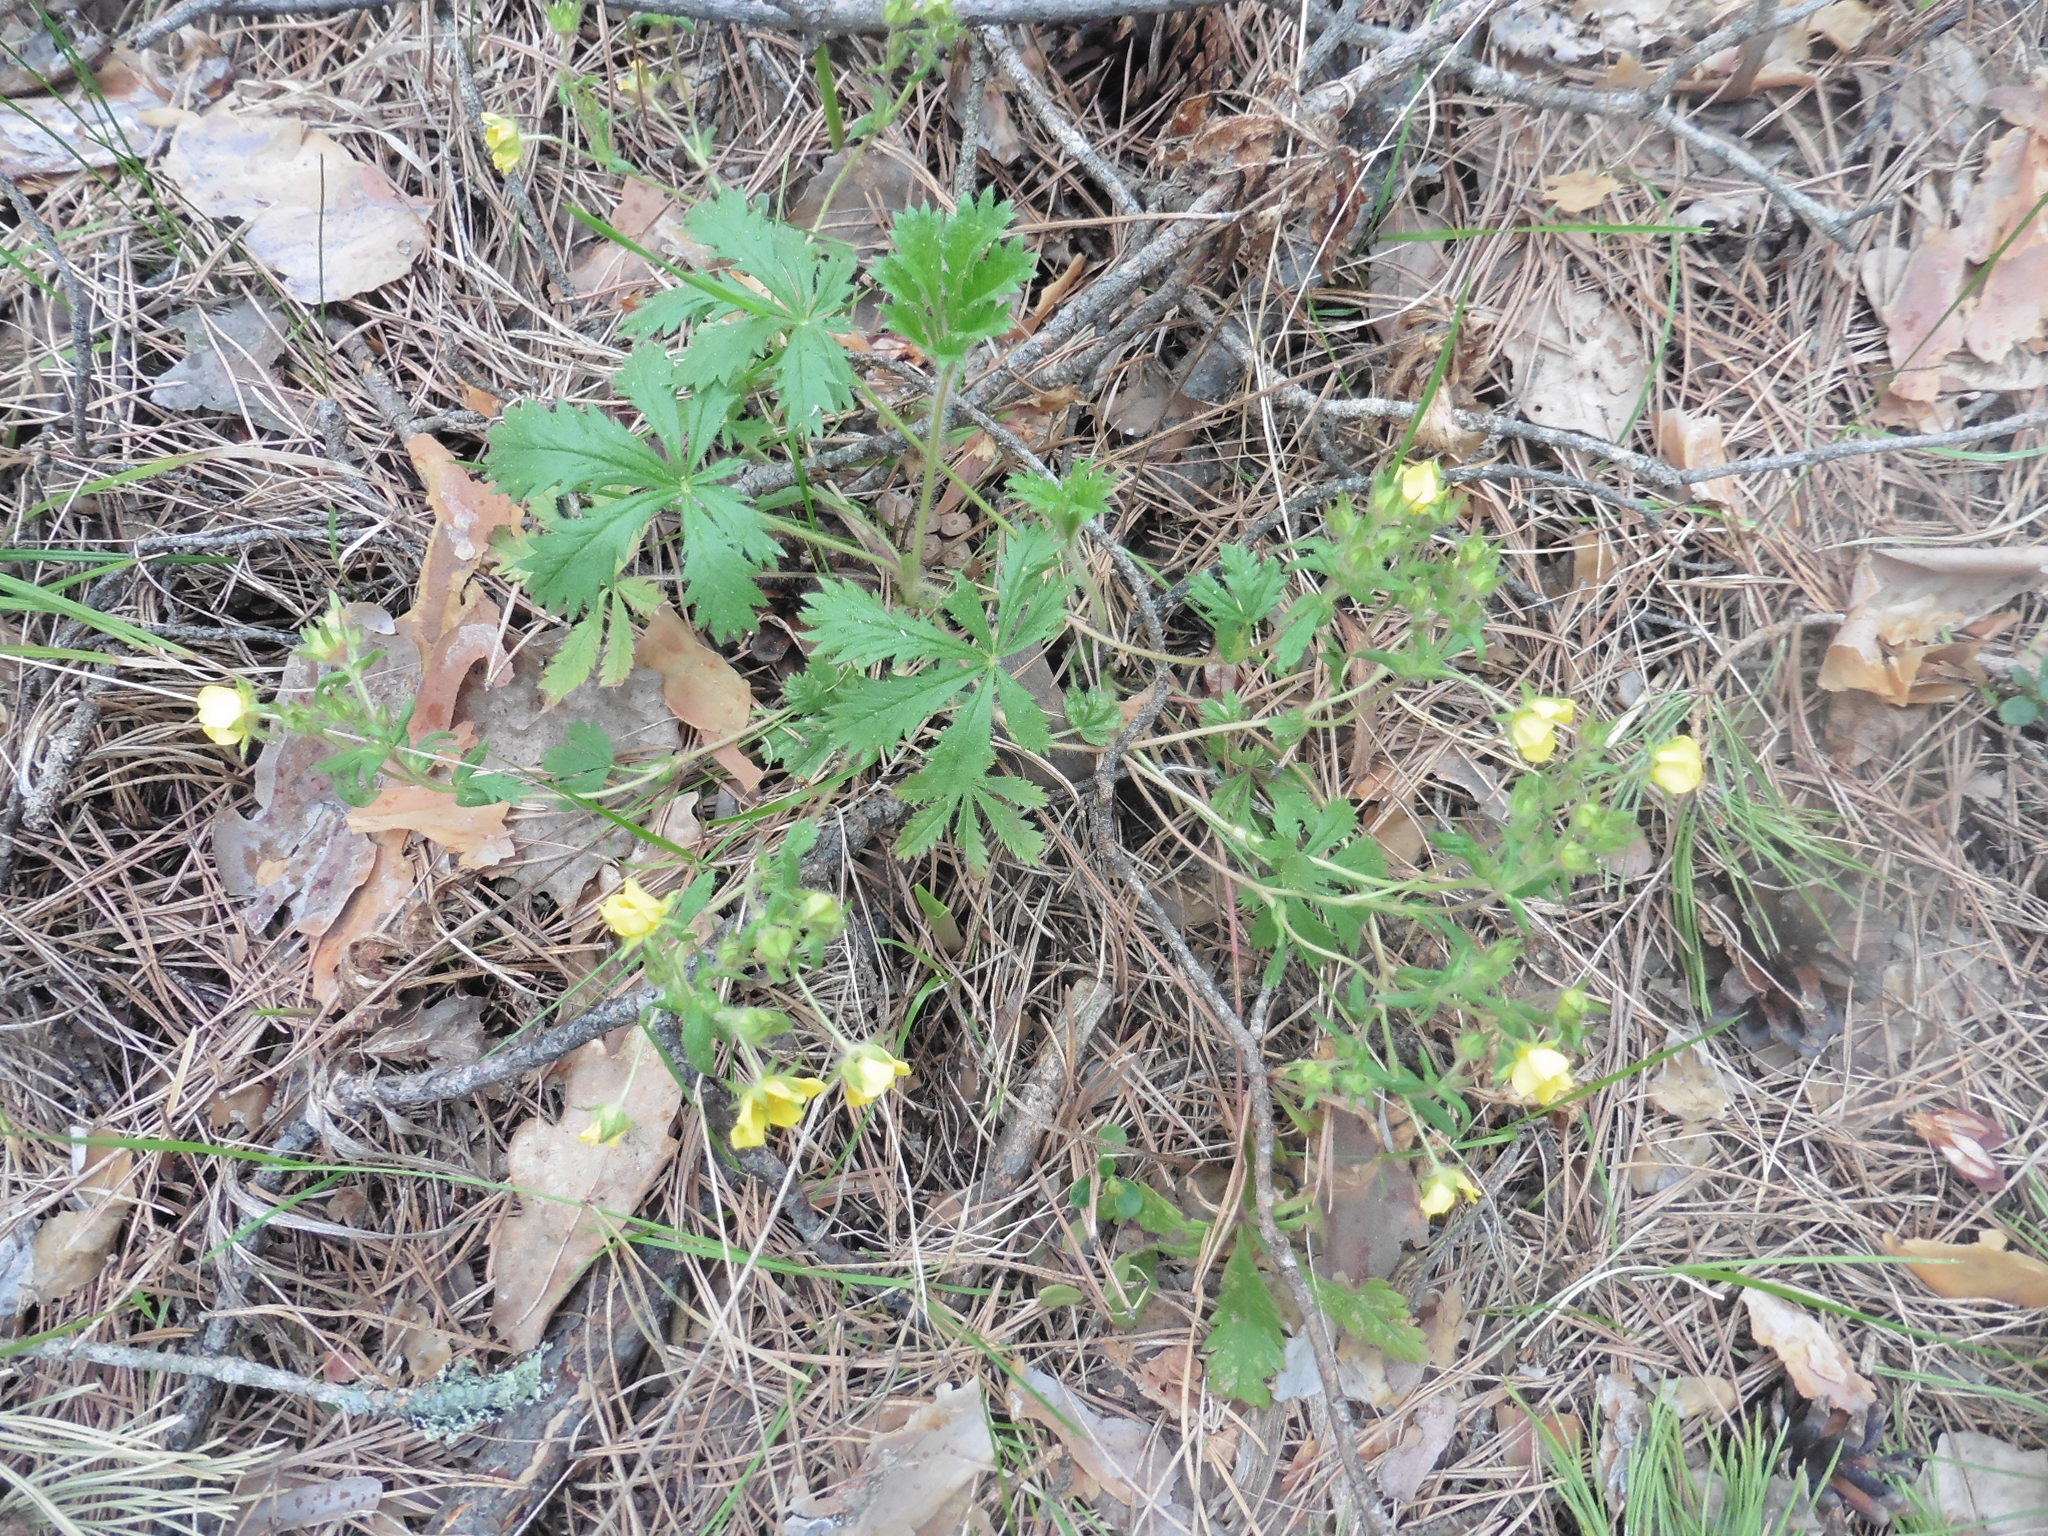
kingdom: Plantae
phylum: Tracheophyta
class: Magnoliopsida
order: Rosales
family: Rosaceae
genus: Potentilla
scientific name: Potentilla humifusa
